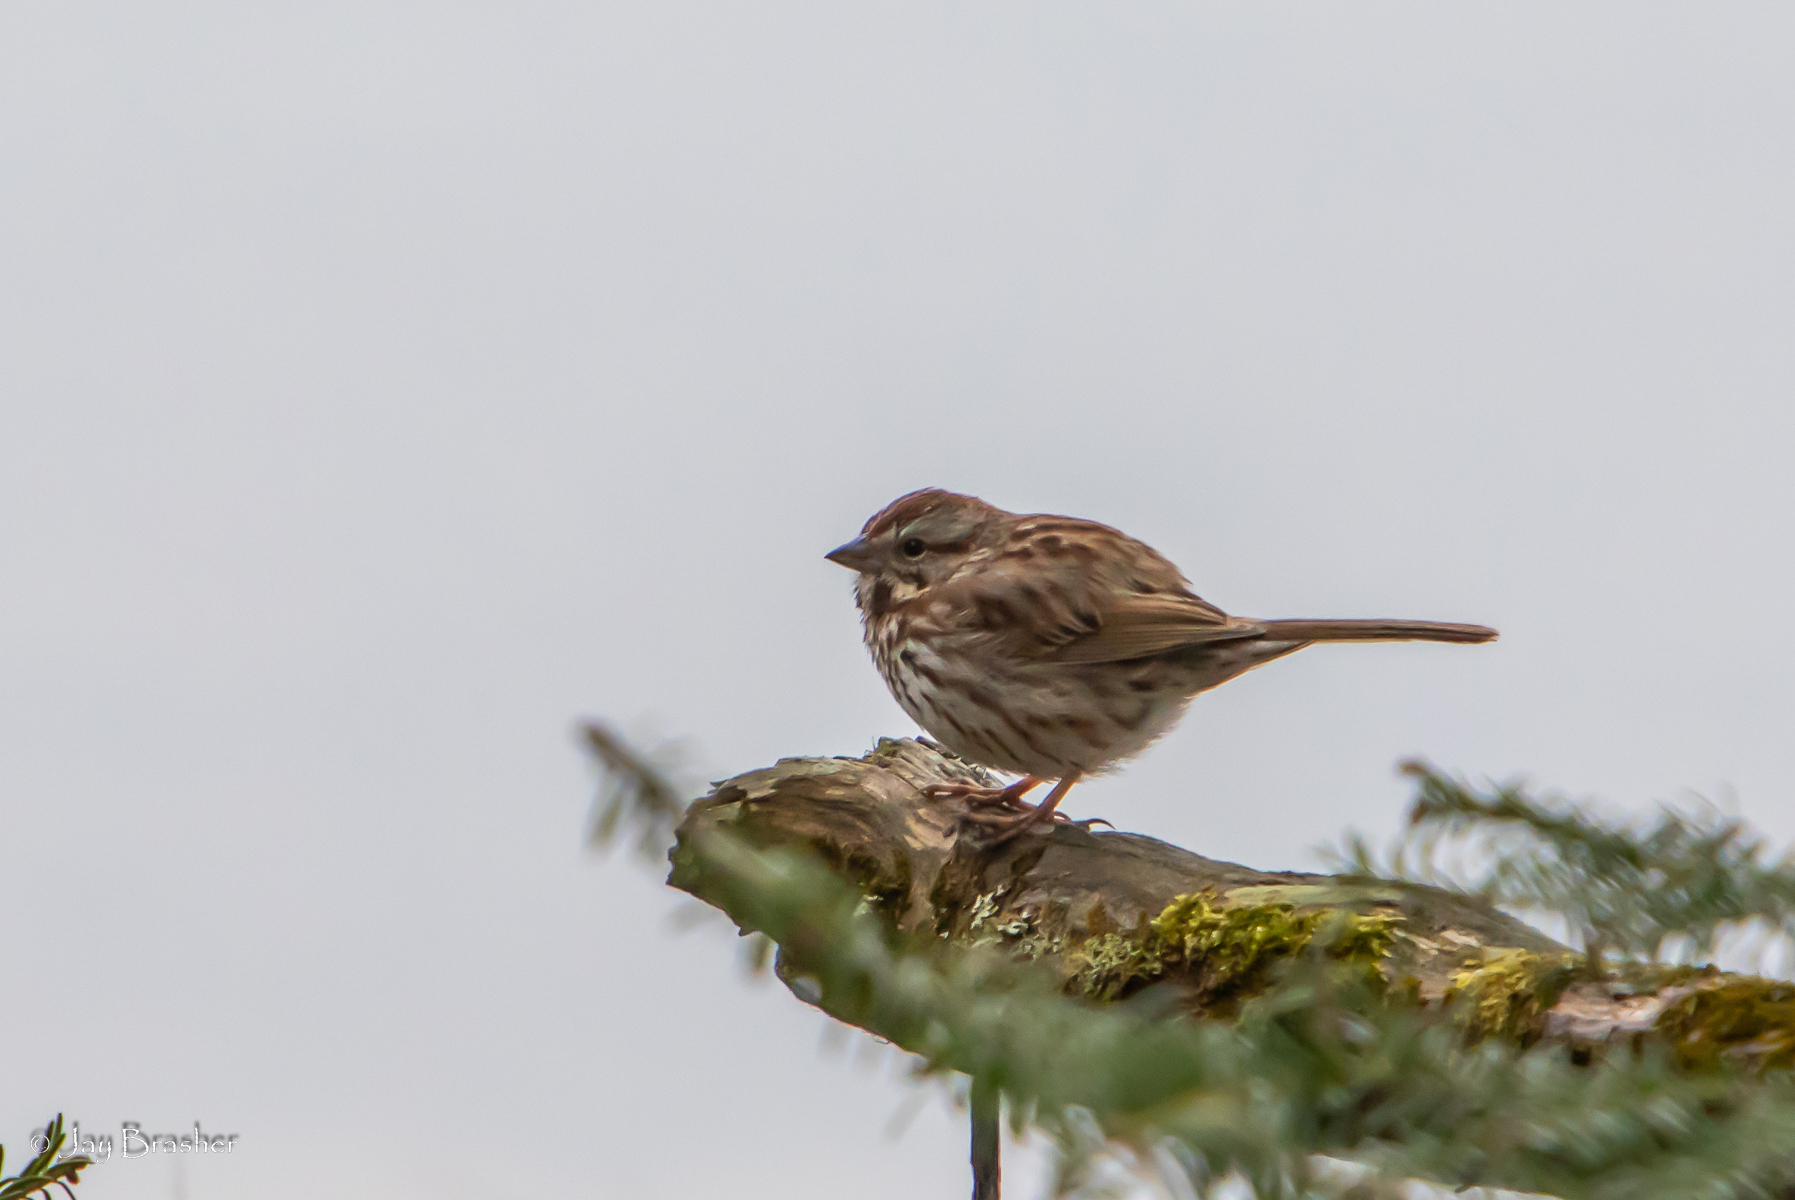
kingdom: Animalia
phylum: Chordata
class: Aves
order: Passeriformes
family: Passerellidae
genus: Melospiza
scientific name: Melospiza melodia
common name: Song sparrow
